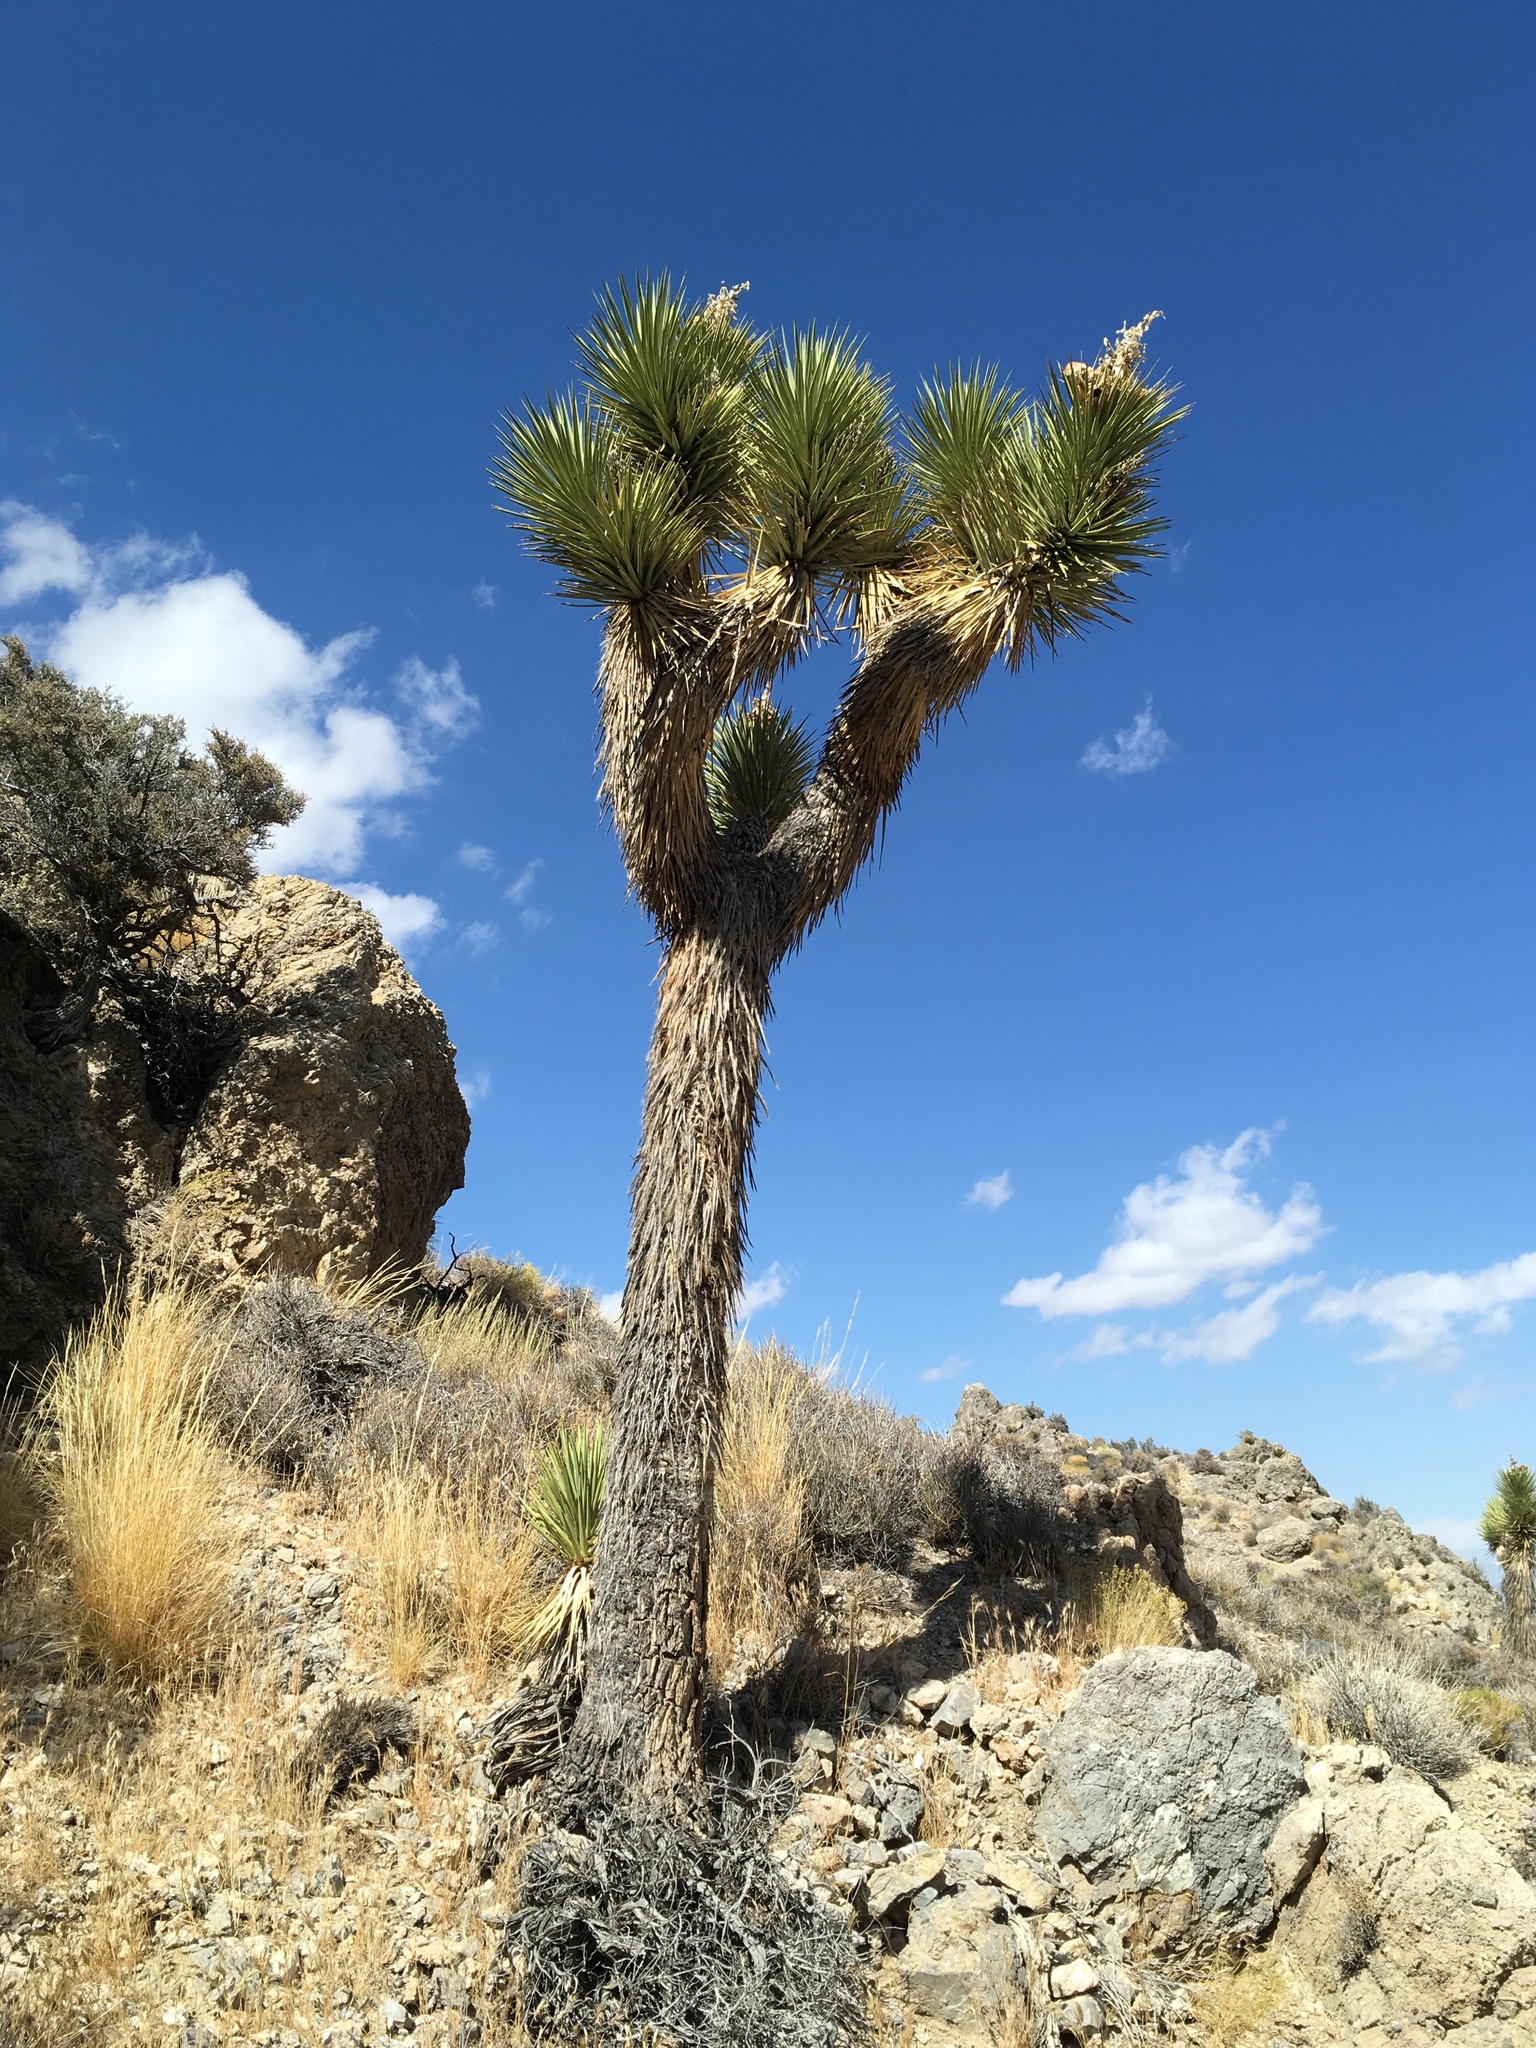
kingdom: Plantae
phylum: Tracheophyta
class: Liliopsida
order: Asparagales
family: Asparagaceae
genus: Yucca
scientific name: Yucca brevifolia
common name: Joshua tree
